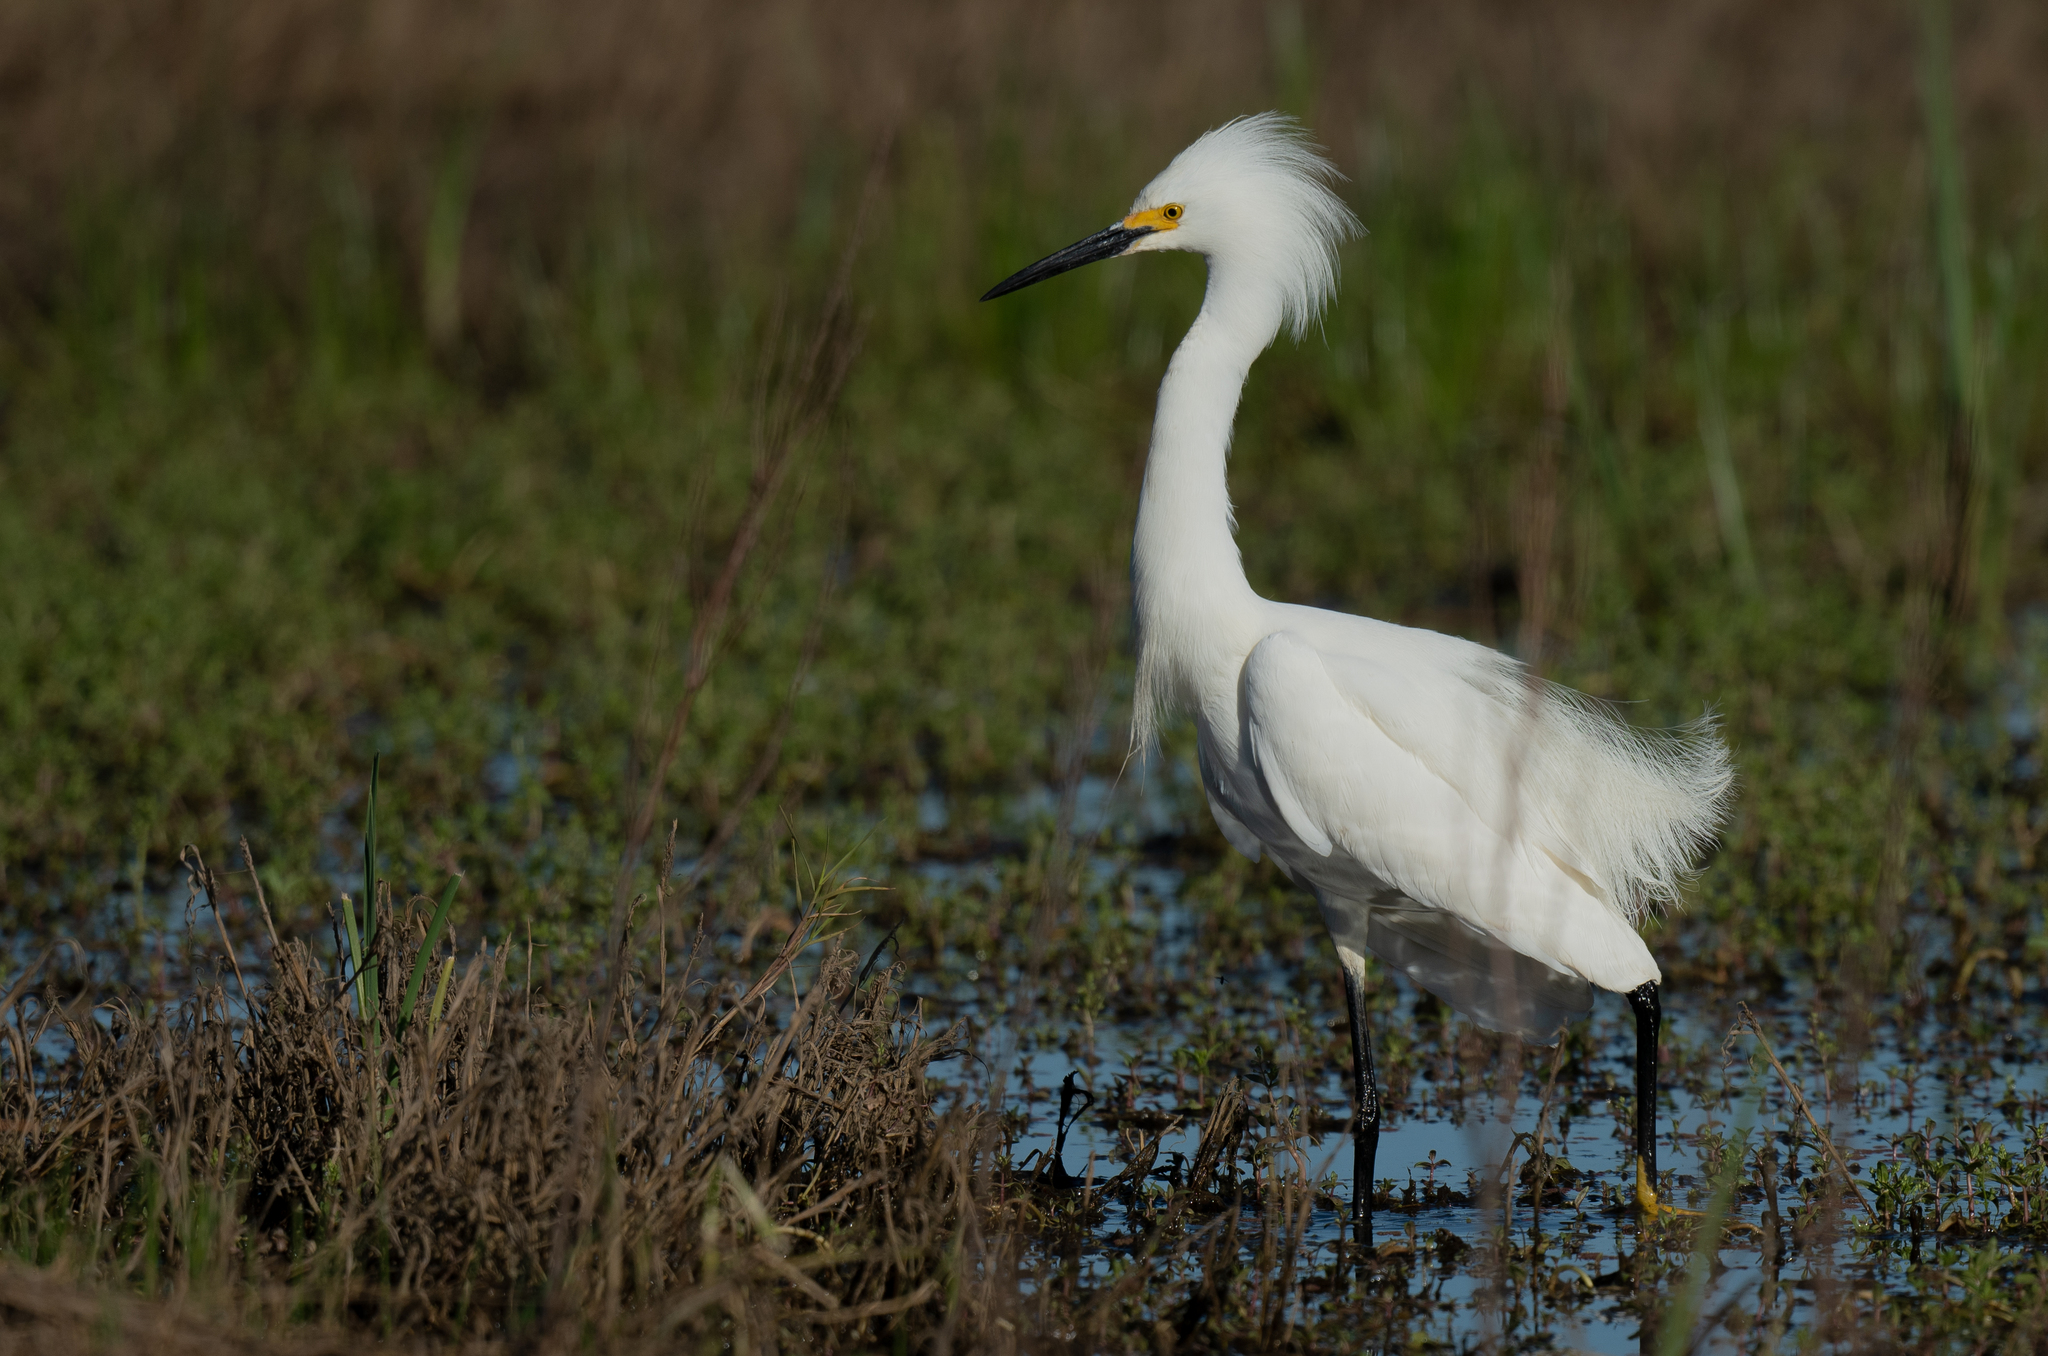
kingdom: Animalia
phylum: Chordata
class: Aves
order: Pelecaniformes
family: Ardeidae
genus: Egretta
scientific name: Egretta thula
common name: Snowy egret
